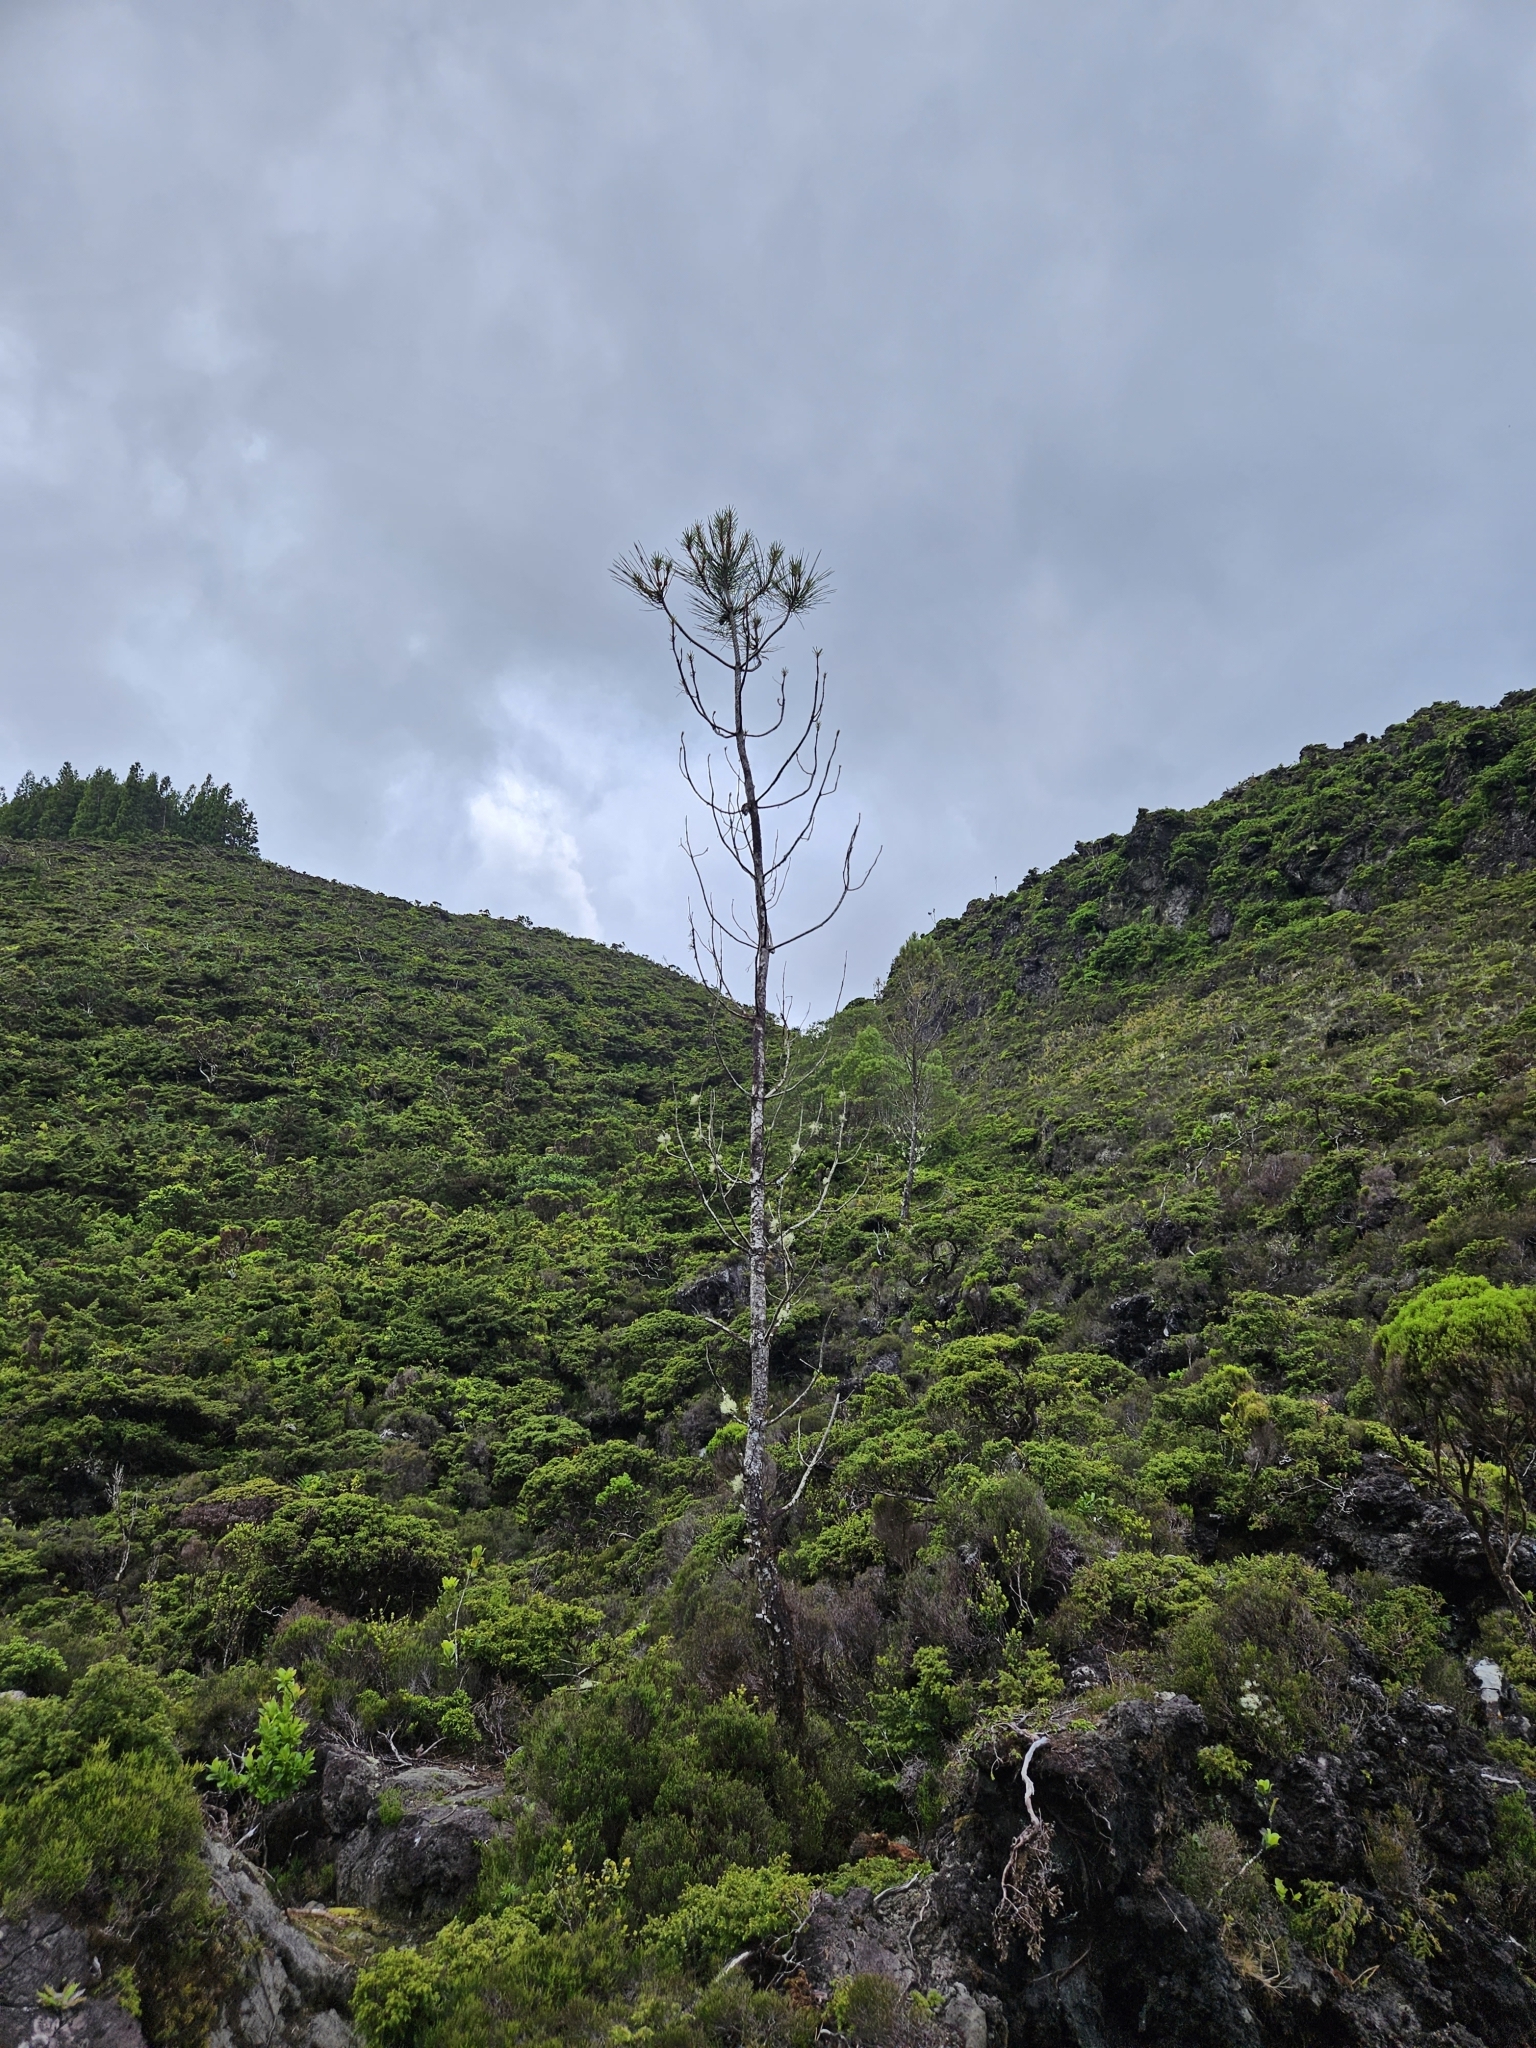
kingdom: Plantae
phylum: Tracheophyta
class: Pinopsida
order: Pinales
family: Pinaceae
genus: Pinus
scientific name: Pinus pinaster
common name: Maritime pine
